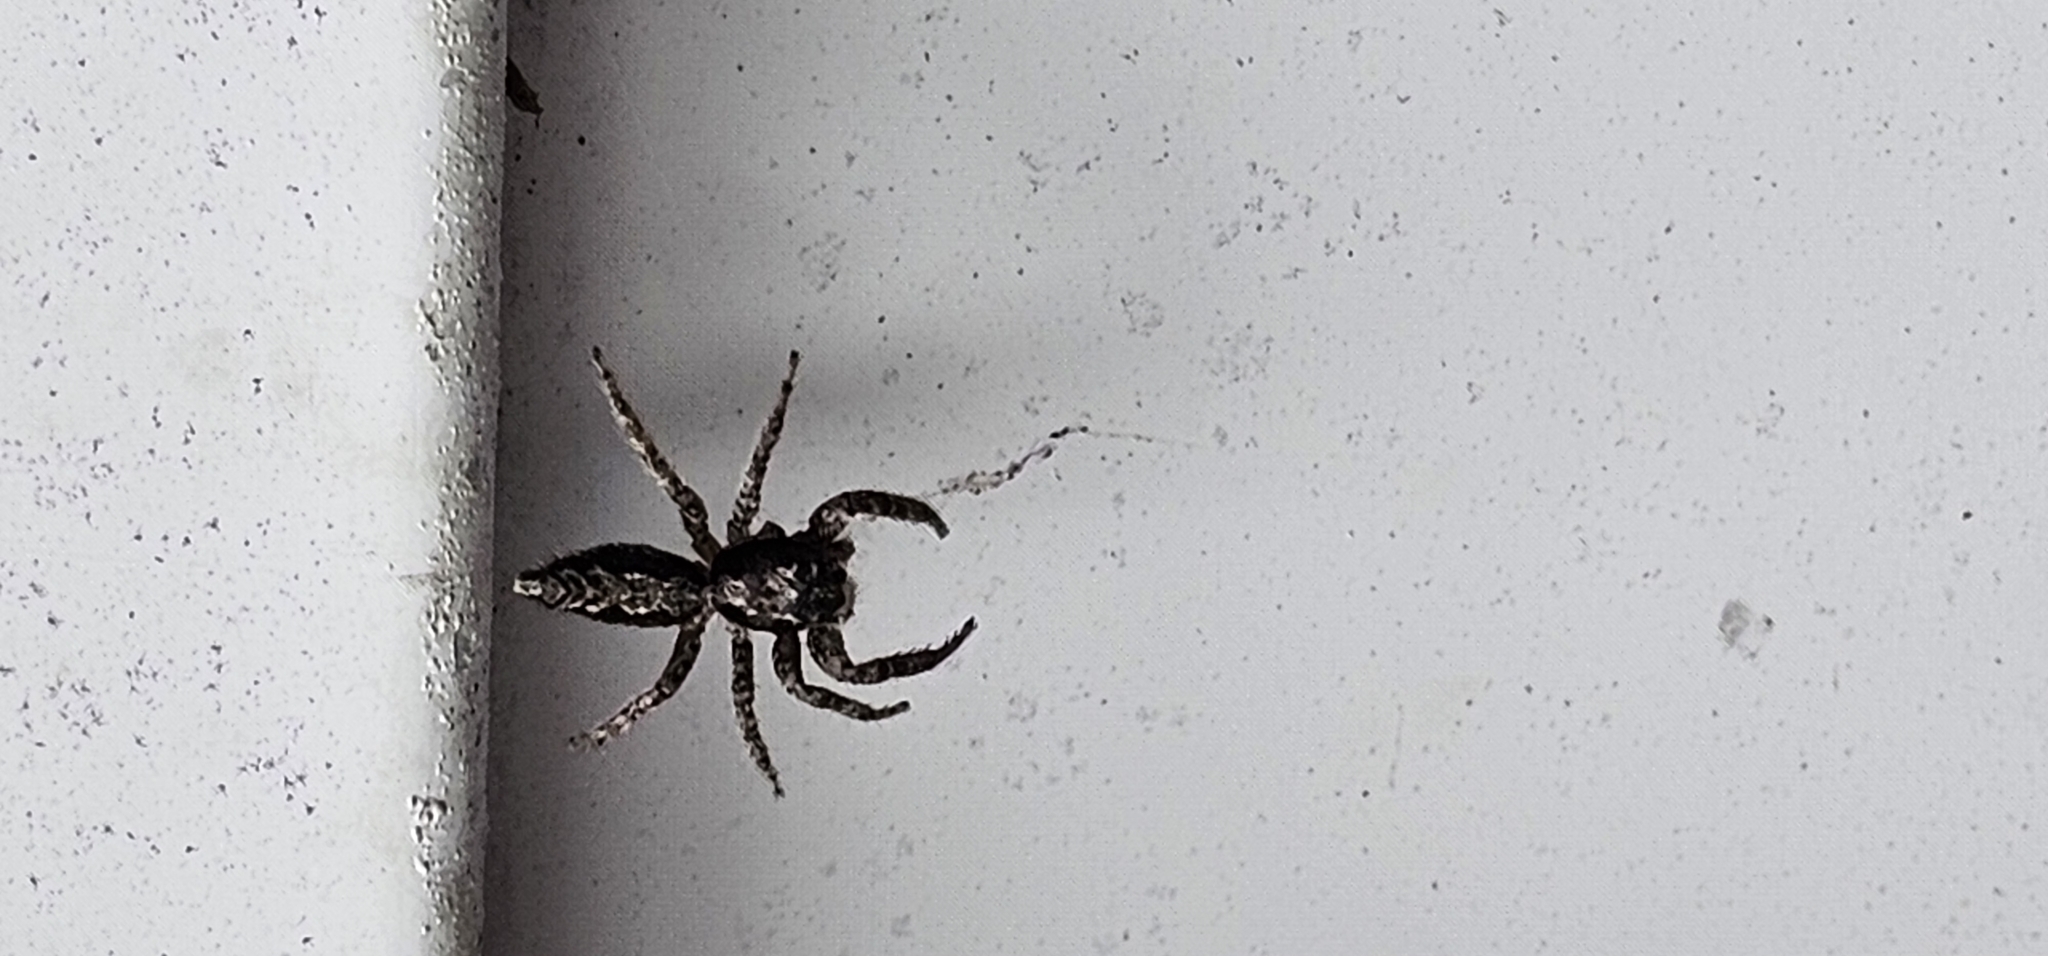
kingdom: Animalia
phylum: Arthropoda
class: Arachnida
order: Araneae
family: Salticidae
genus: Platycryptus
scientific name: Platycryptus californicus
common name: Jumping spiders
